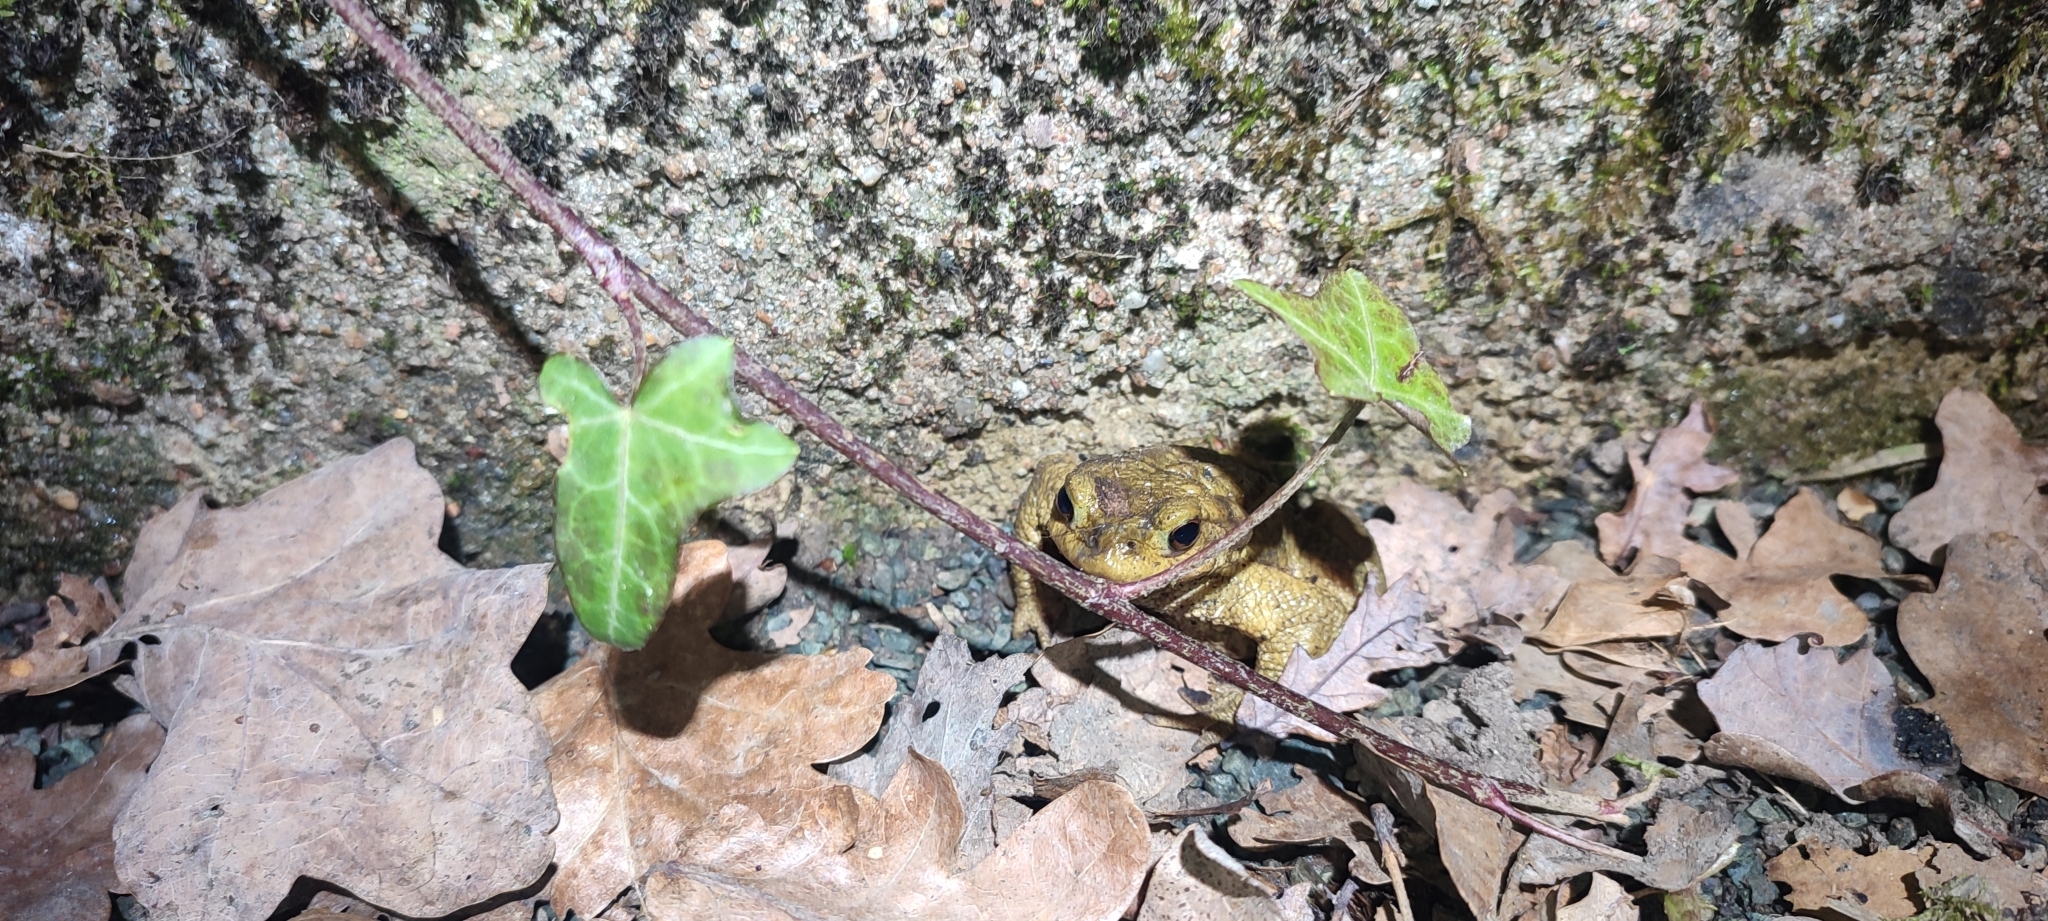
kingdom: Animalia
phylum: Chordata
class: Amphibia
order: Anura
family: Bufonidae
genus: Bufo
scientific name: Bufo spinosus
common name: Western common toad
